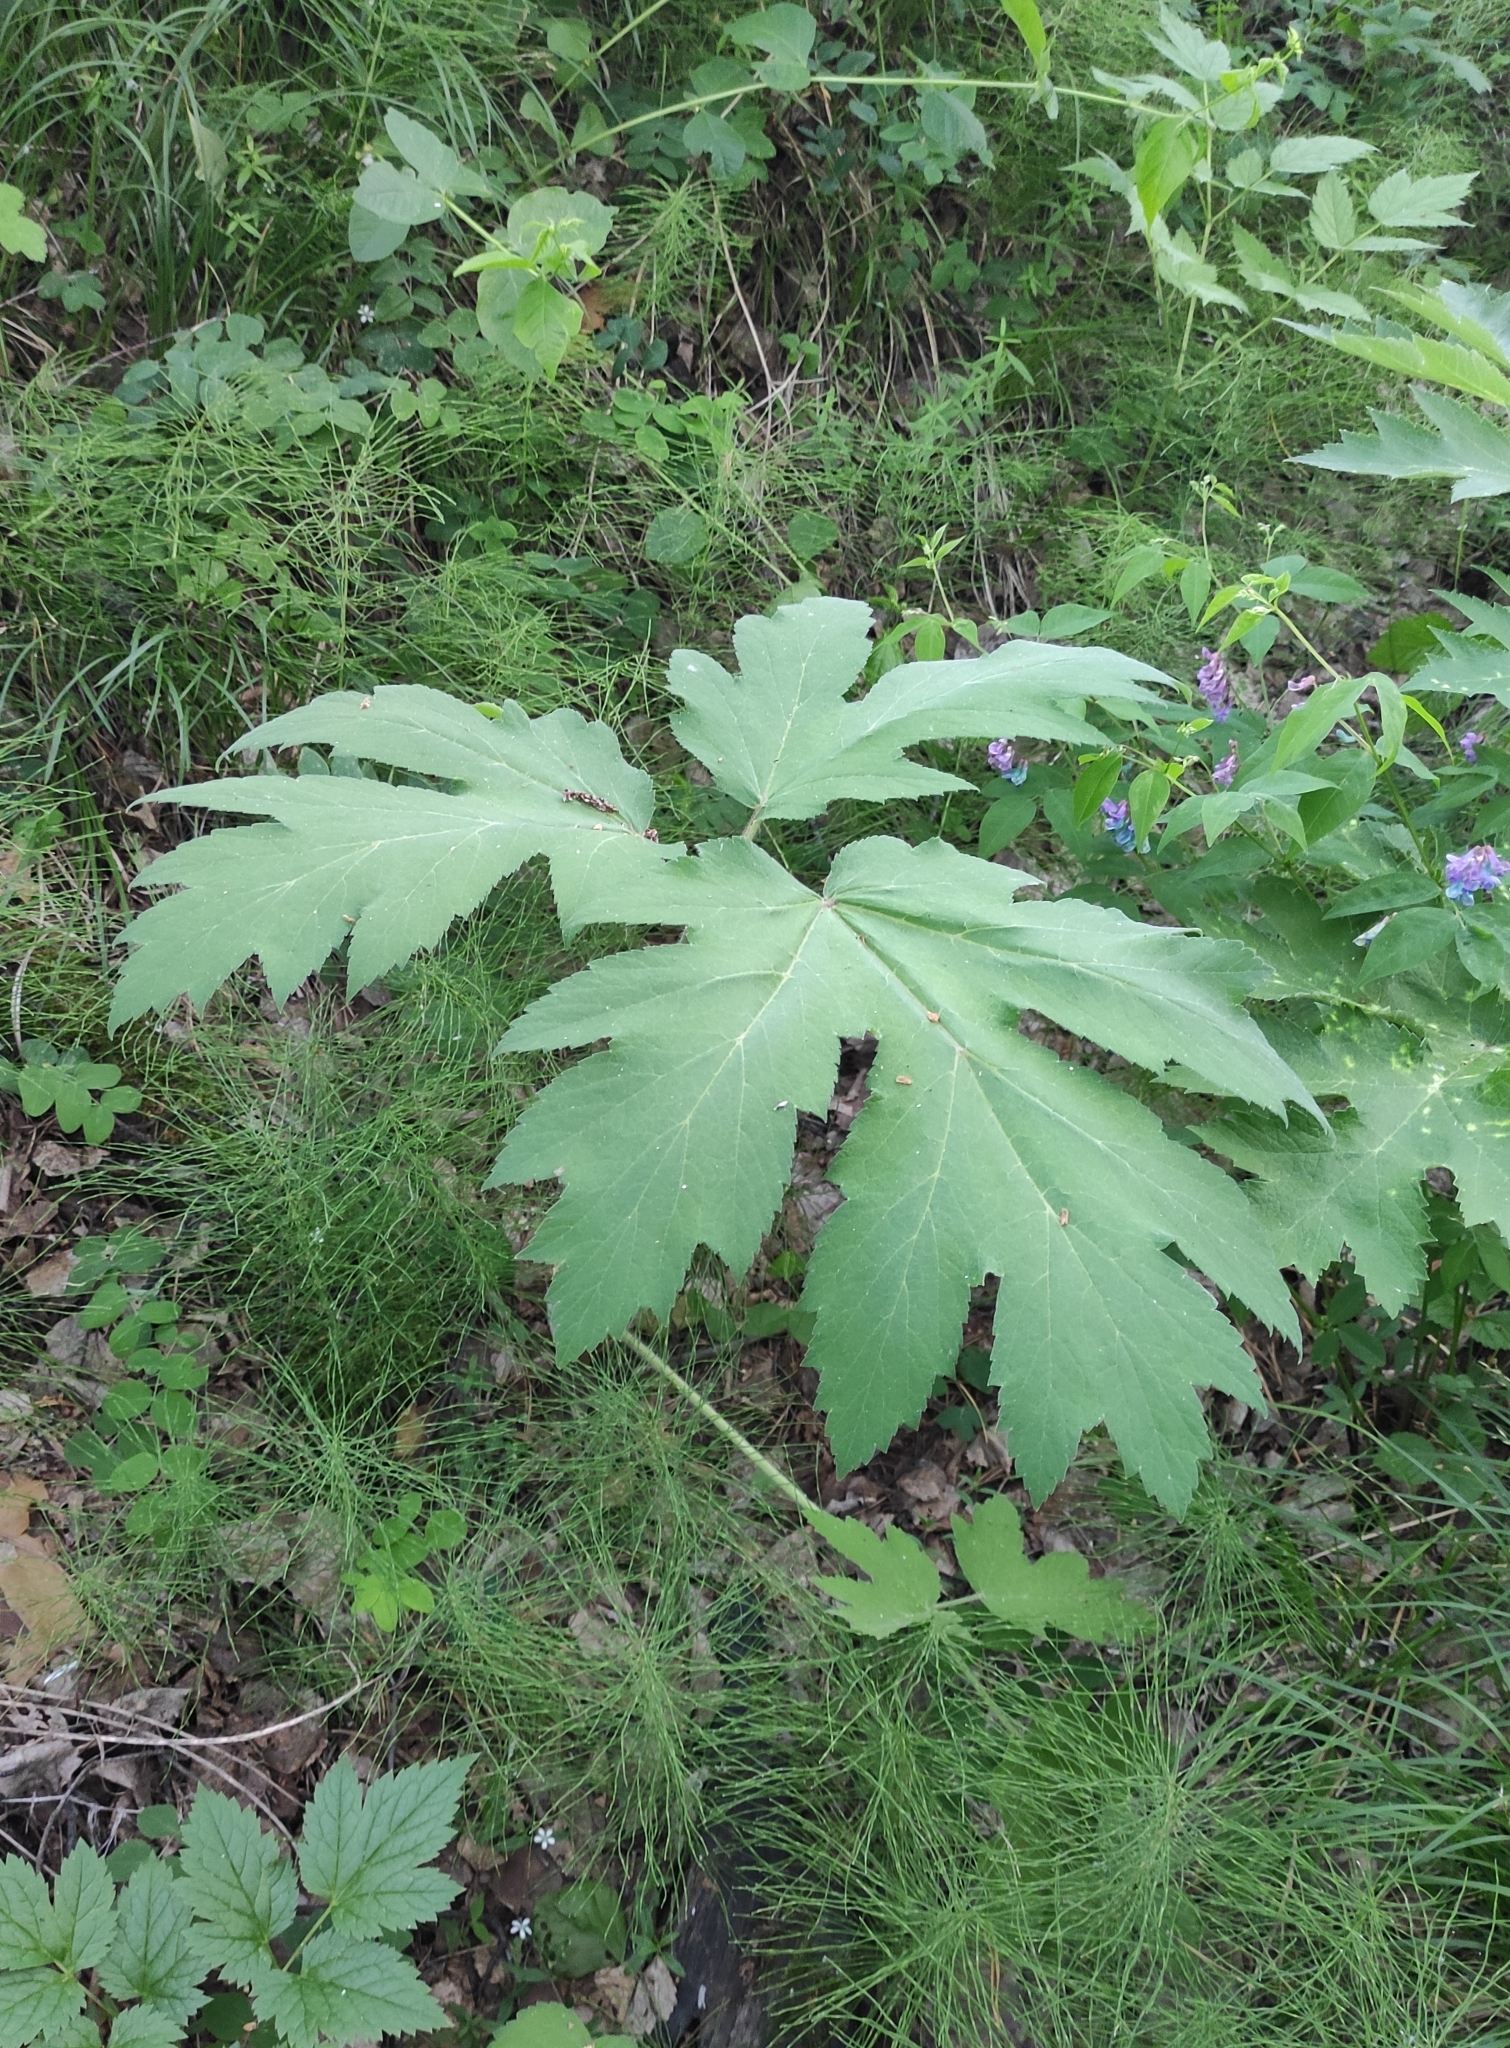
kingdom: Plantae
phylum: Tracheophyta
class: Magnoliopsida
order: Apiales
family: Apiaceae
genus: Heracleum
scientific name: Heracleum dissectum
